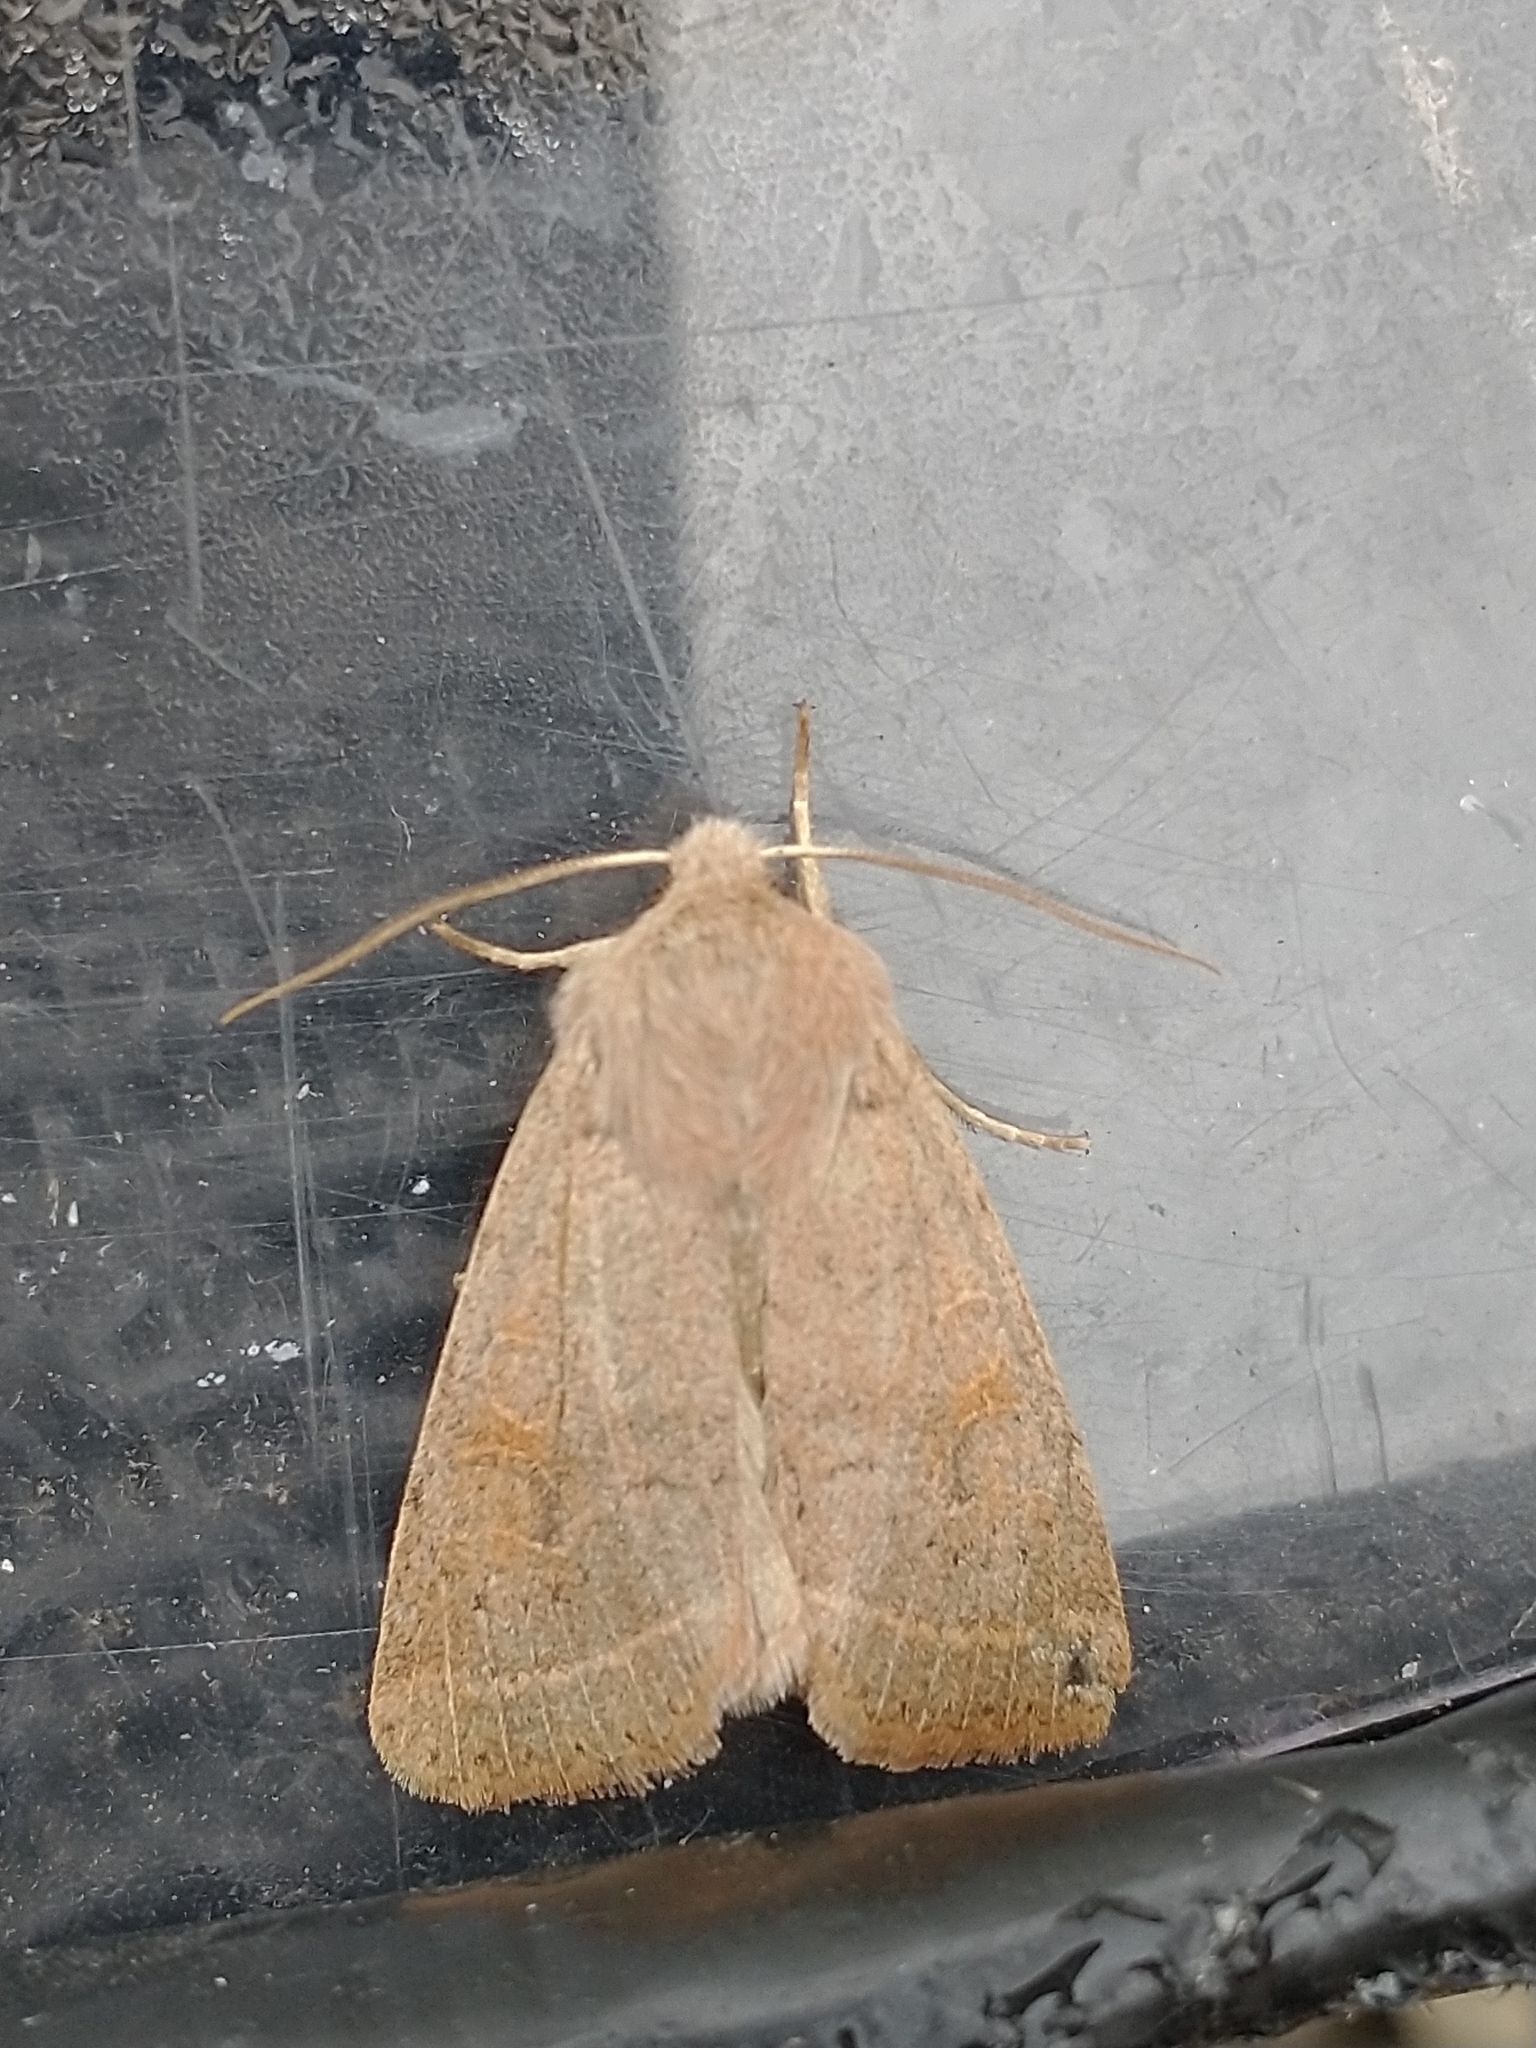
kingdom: Animalia
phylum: Arthropoda
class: Insecta
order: Lepidoptera
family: Noctuidae
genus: Orthosia
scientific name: Orthosia cerasi
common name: Common quaker
